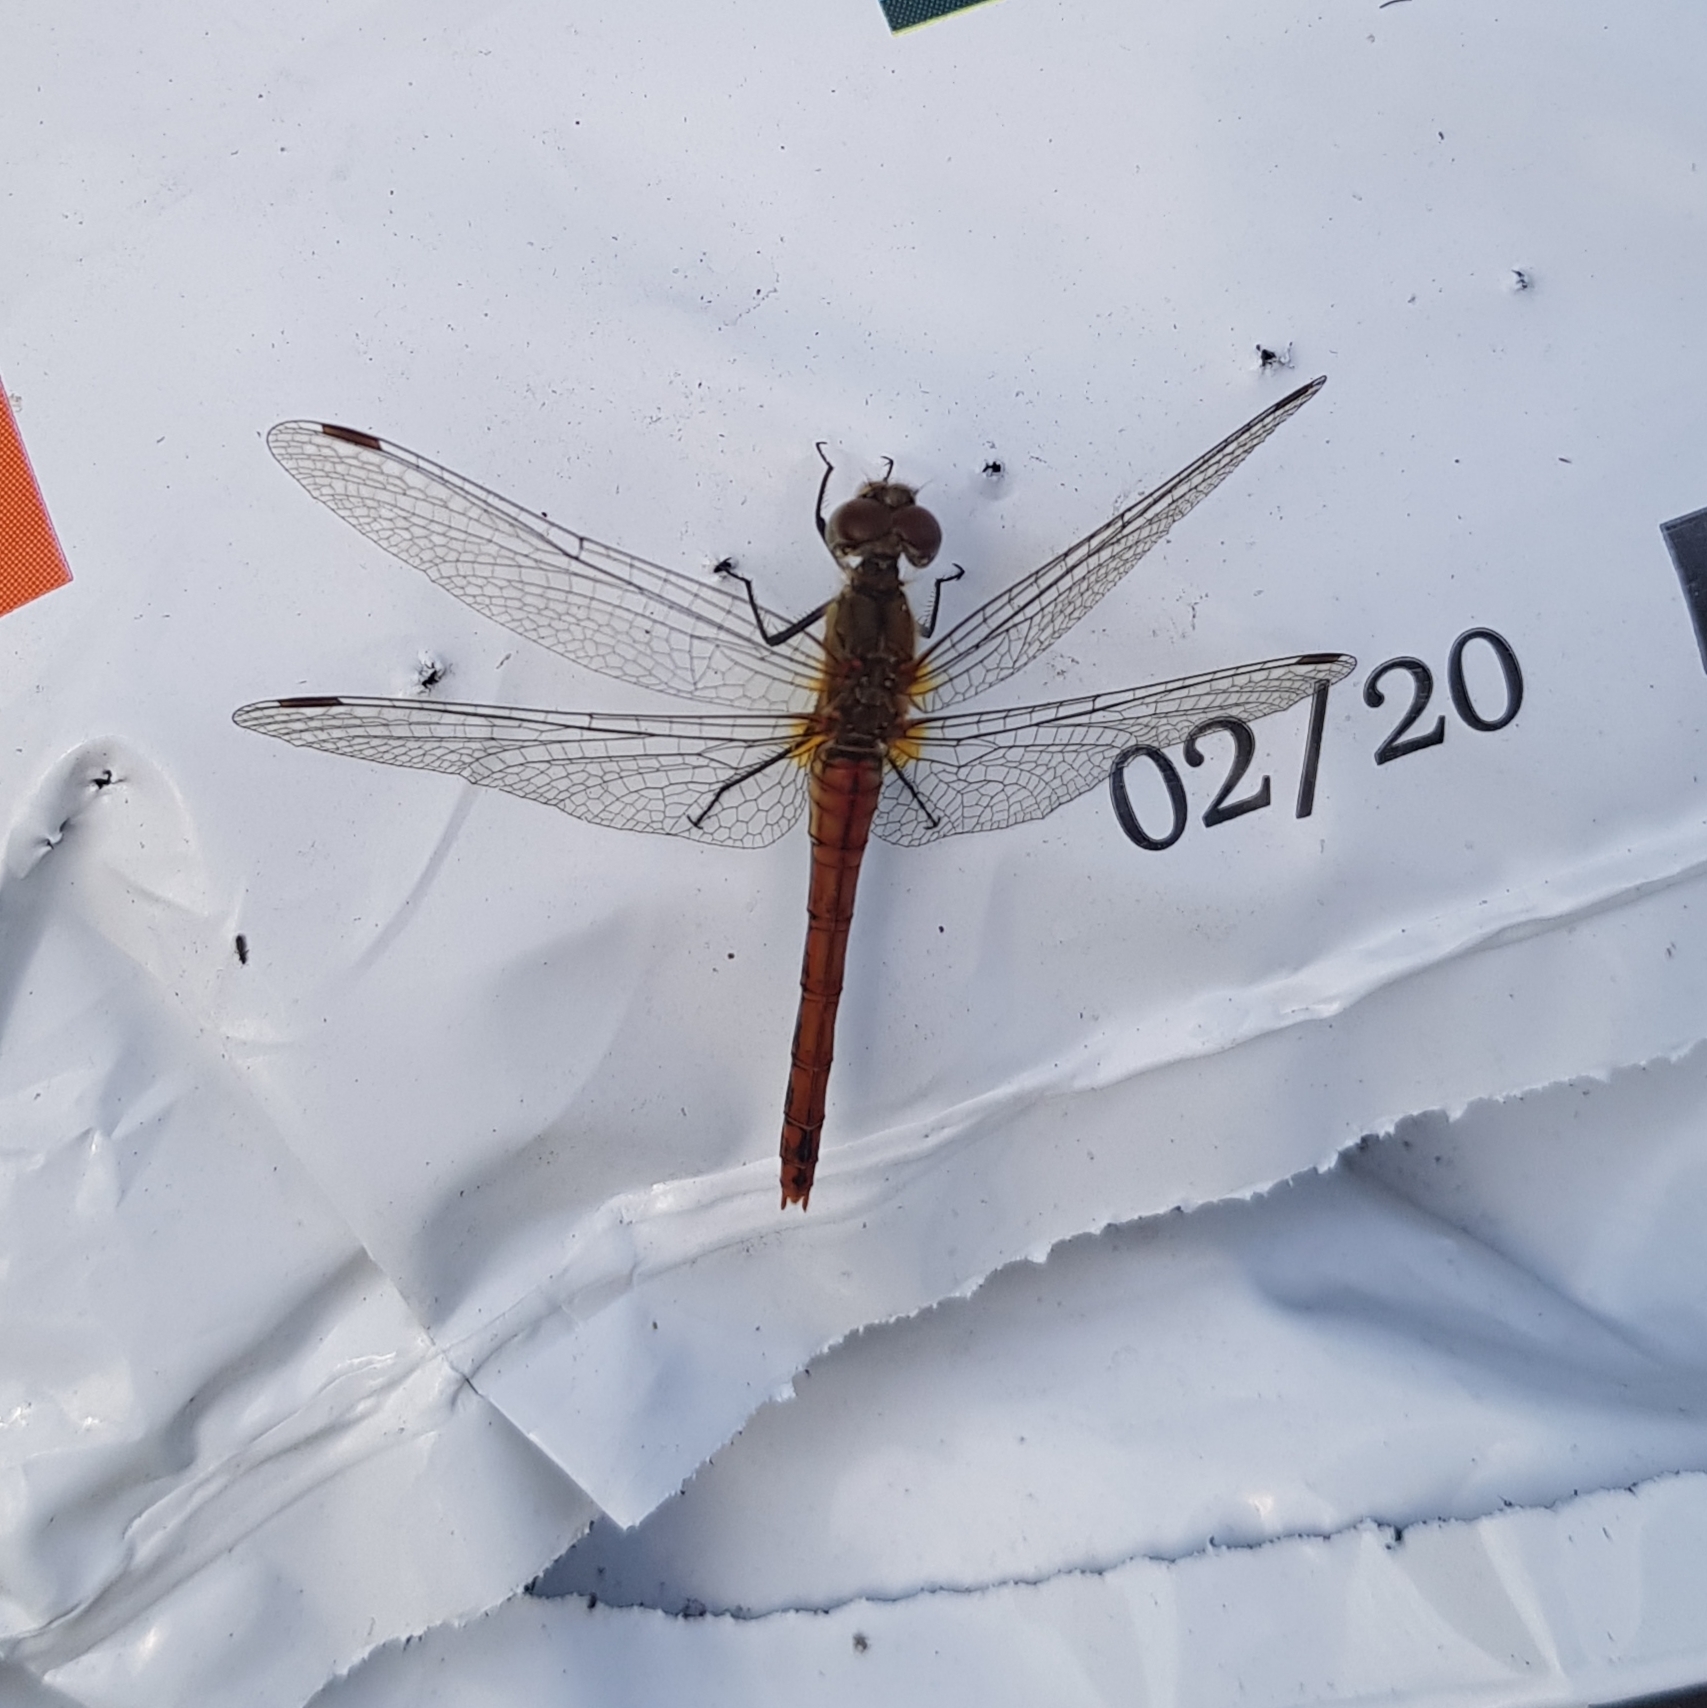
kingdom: Animalia
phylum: Arthropoda
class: Insecta
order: Odonata
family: Libellulidae
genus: Sympetrum
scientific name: Sympetrum sanguineum
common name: Ruddy darter
